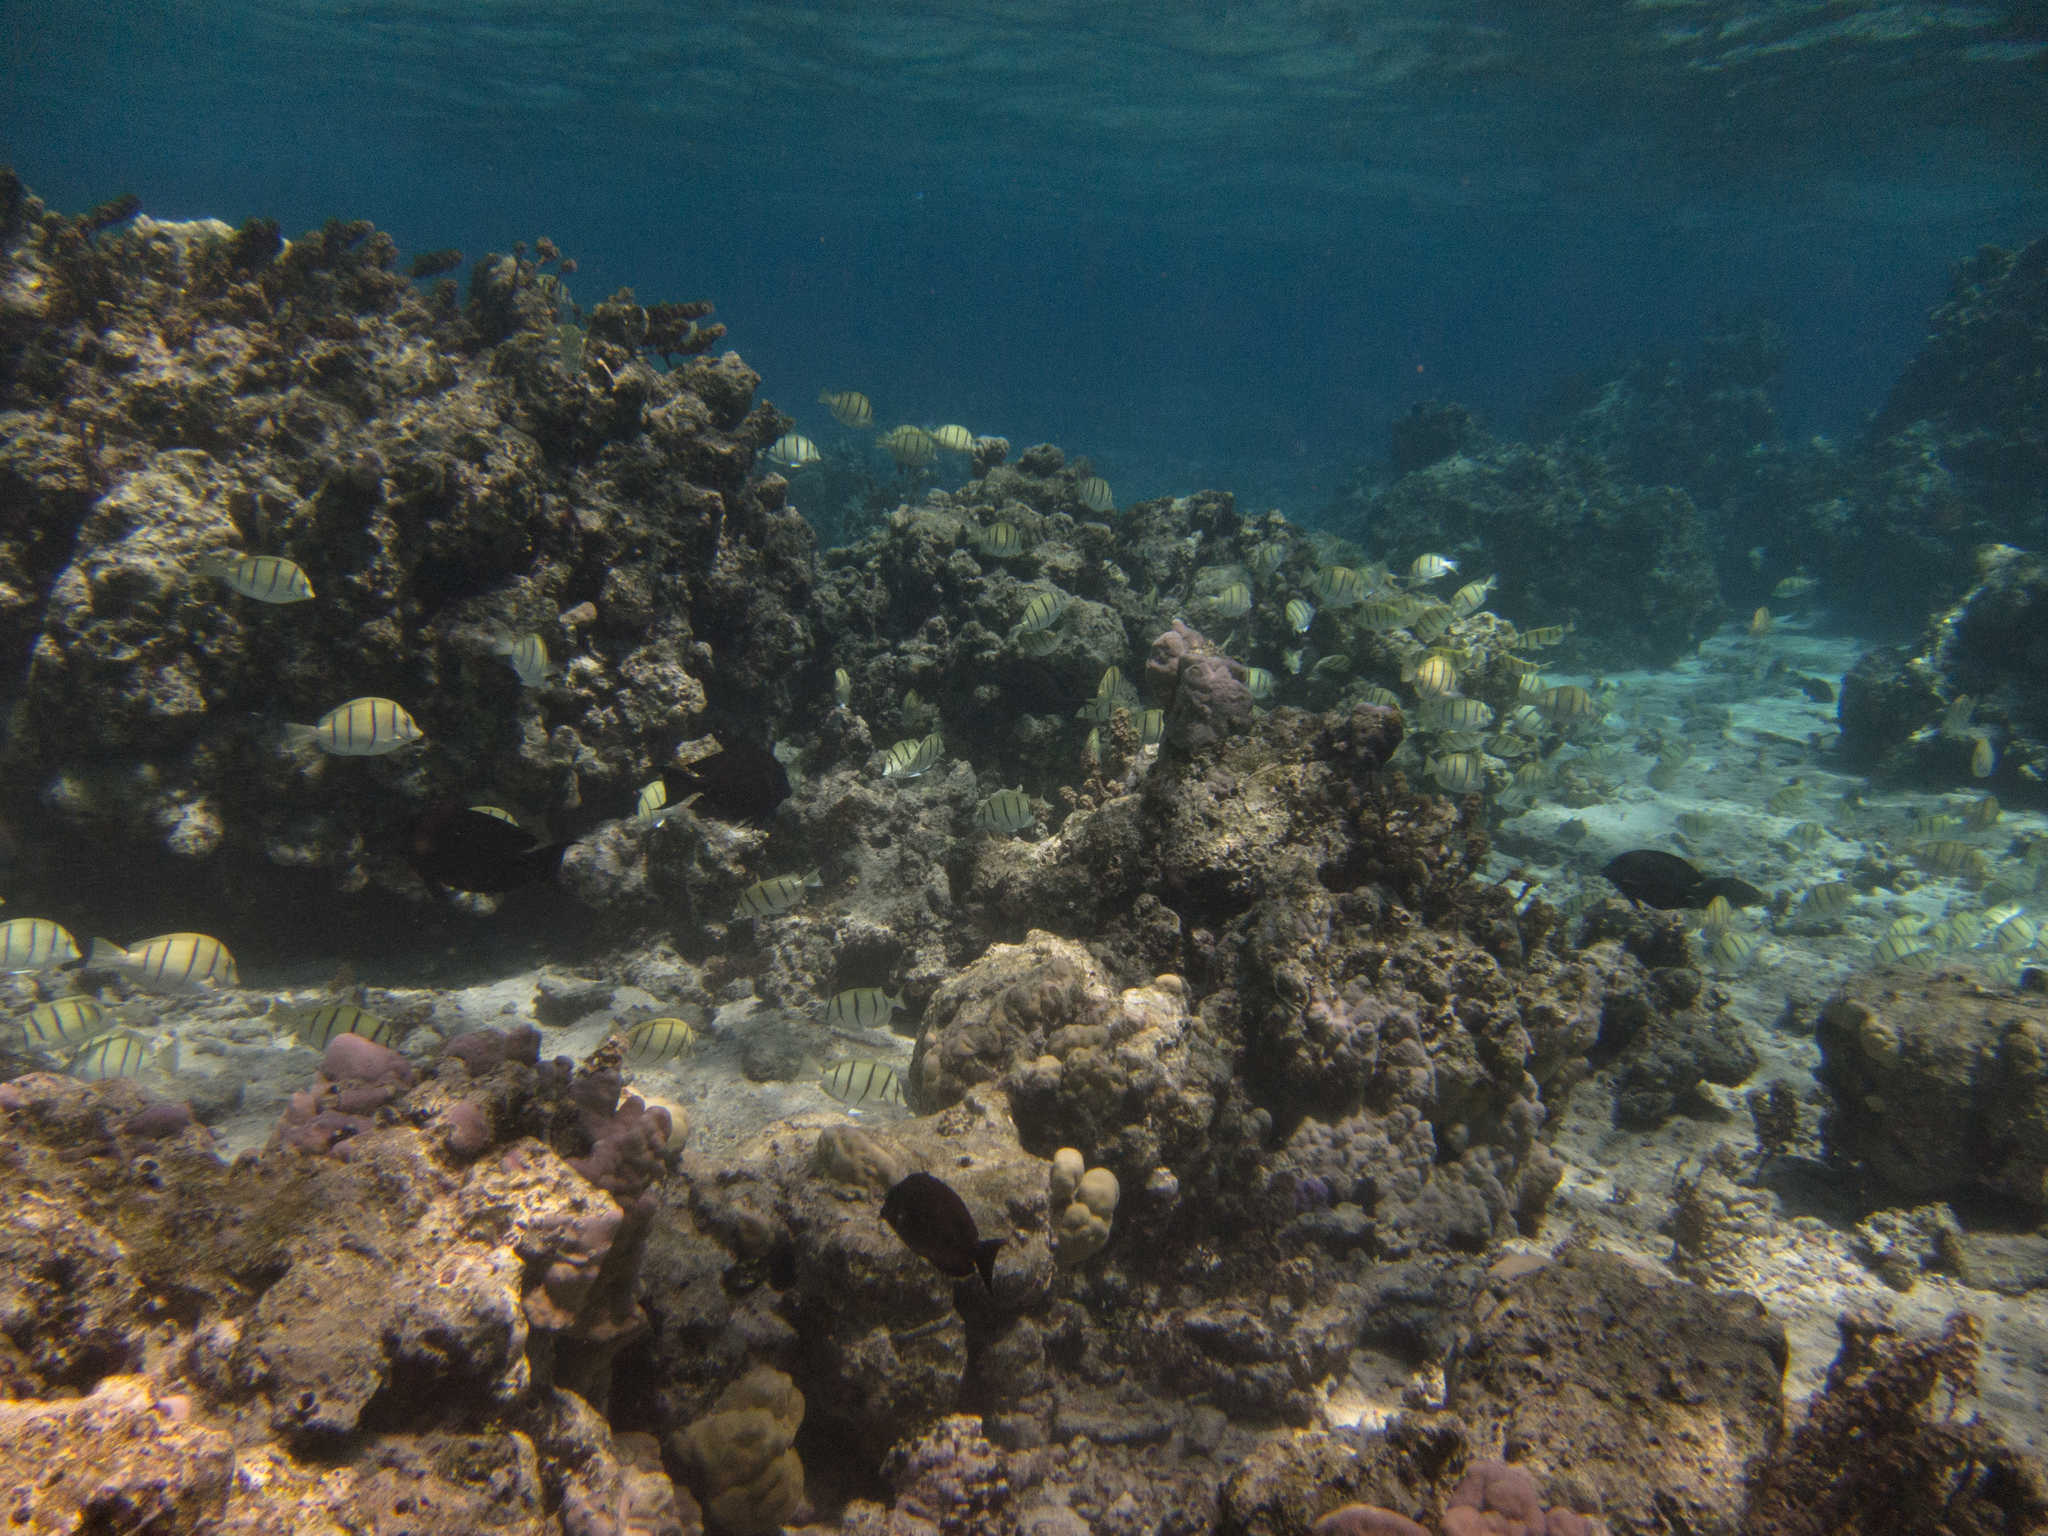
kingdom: Animalia
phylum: Chordata
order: Perciformes
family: Acanthuridae
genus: Acanthurus
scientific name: Acanthurus triostegus
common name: Convict surgeonfish
